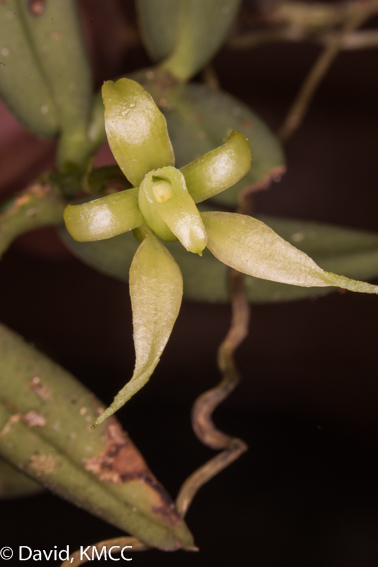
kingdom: Plantae
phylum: Tracheophyta
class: Liliopsida
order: Asparagales
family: Orchidaceae
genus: Lemurella
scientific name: Lemurella pallidiflora
